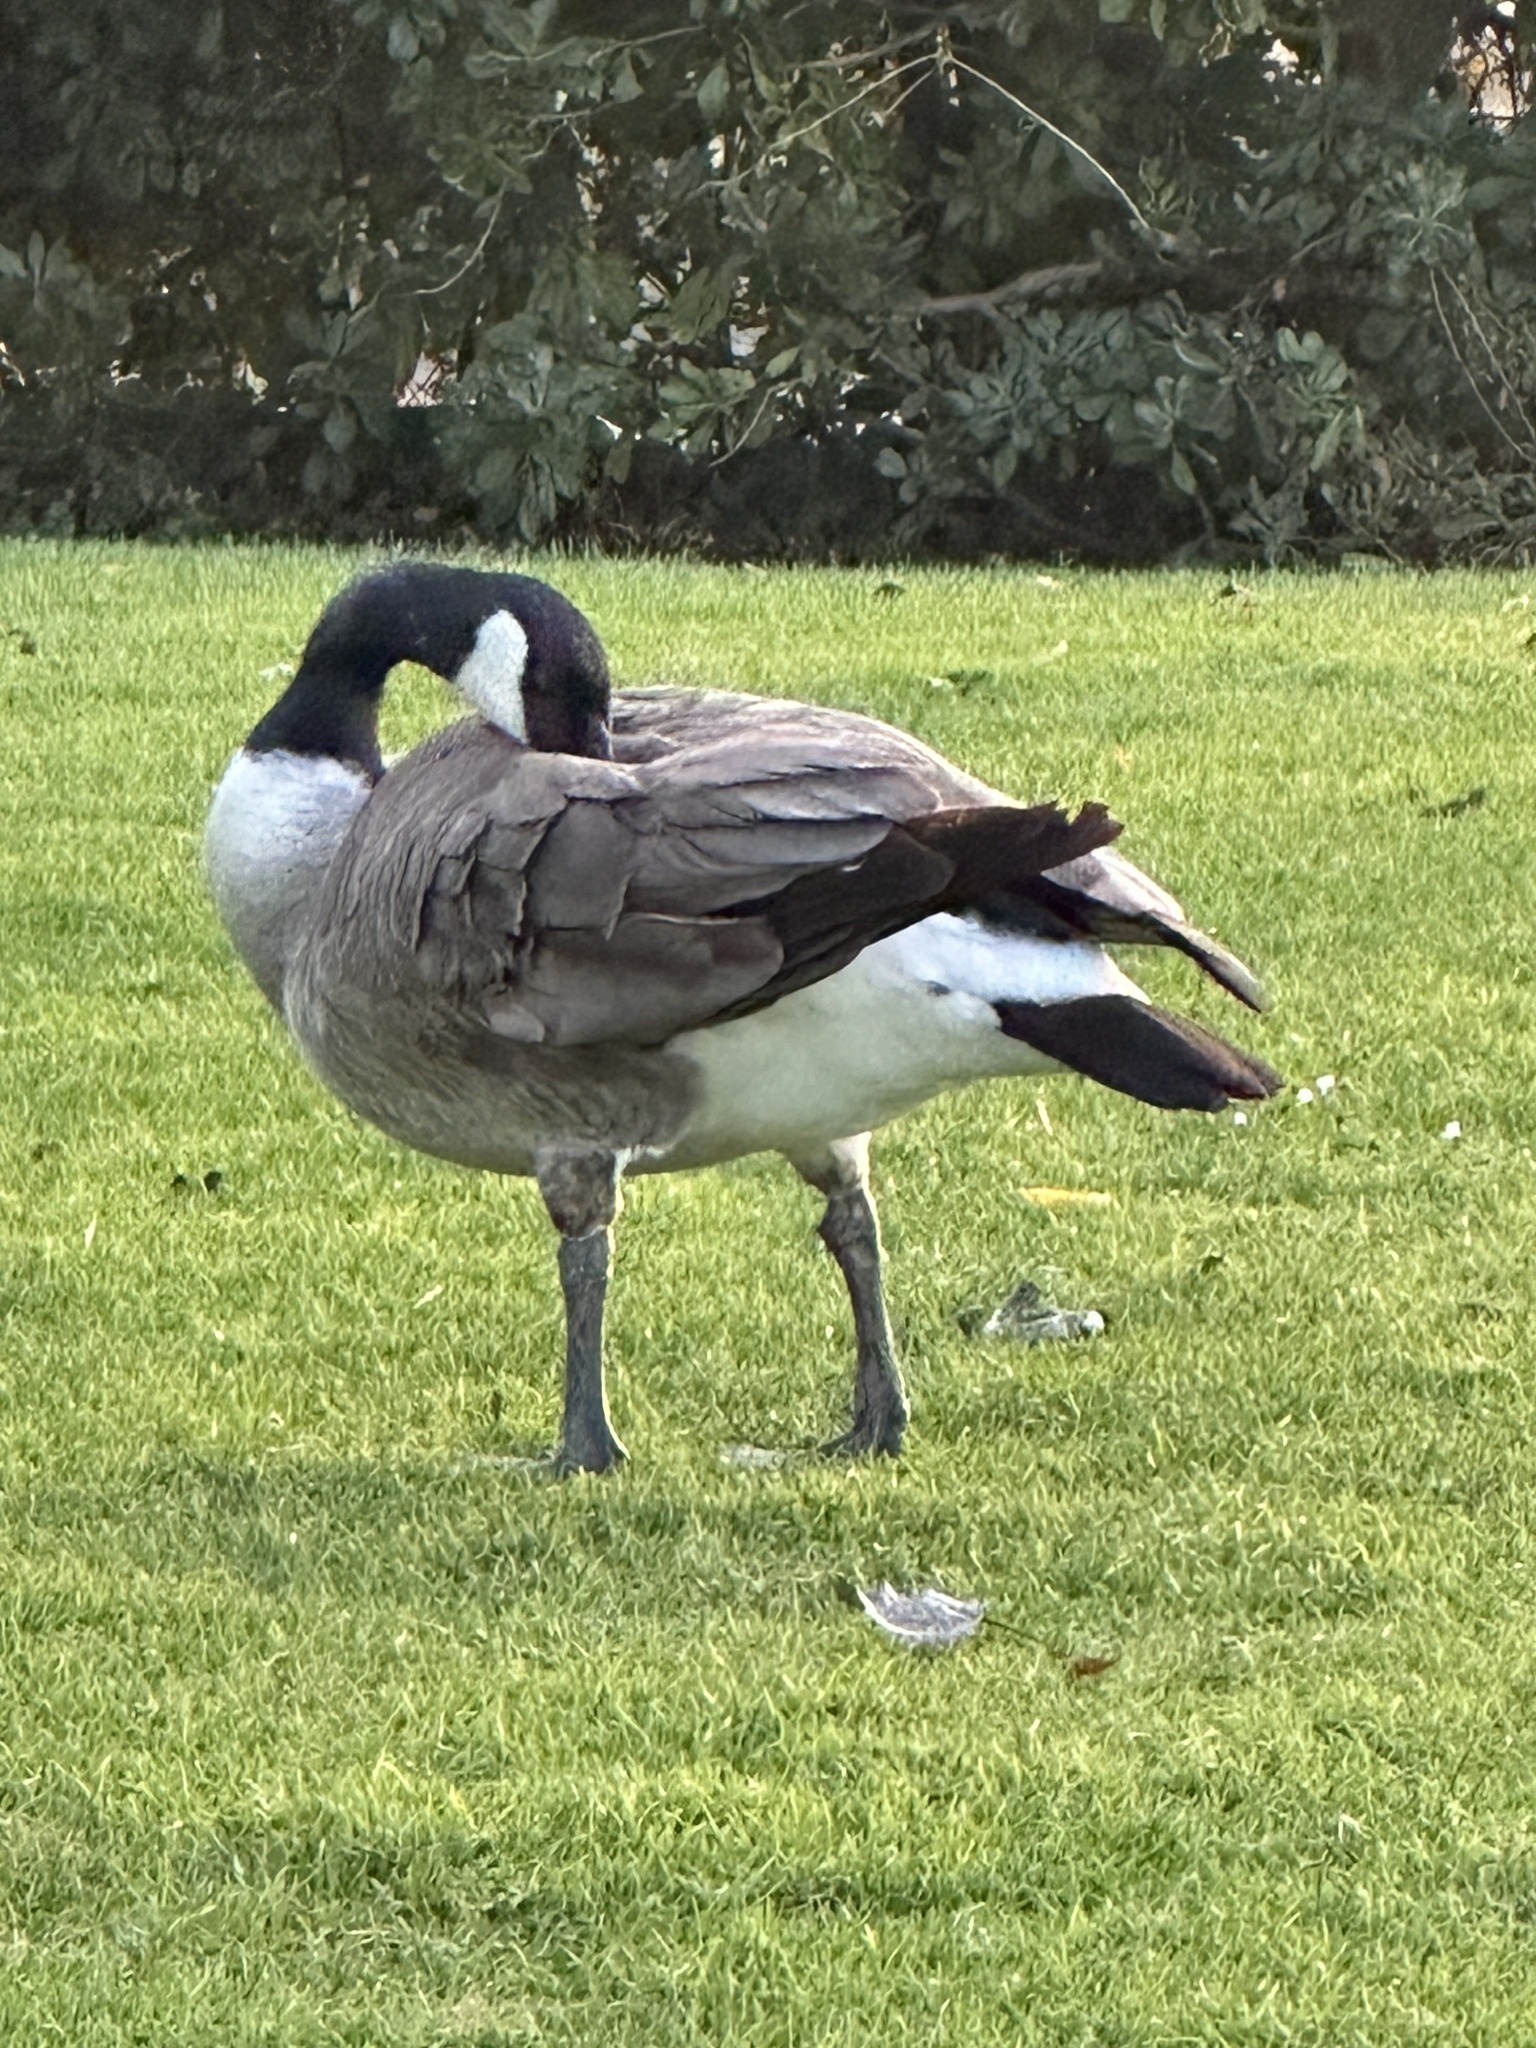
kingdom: Animalia
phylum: Chordata
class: Aves
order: Anseriformes
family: Anatidae
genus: Branta
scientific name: Branta canadensis
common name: Canada goose
